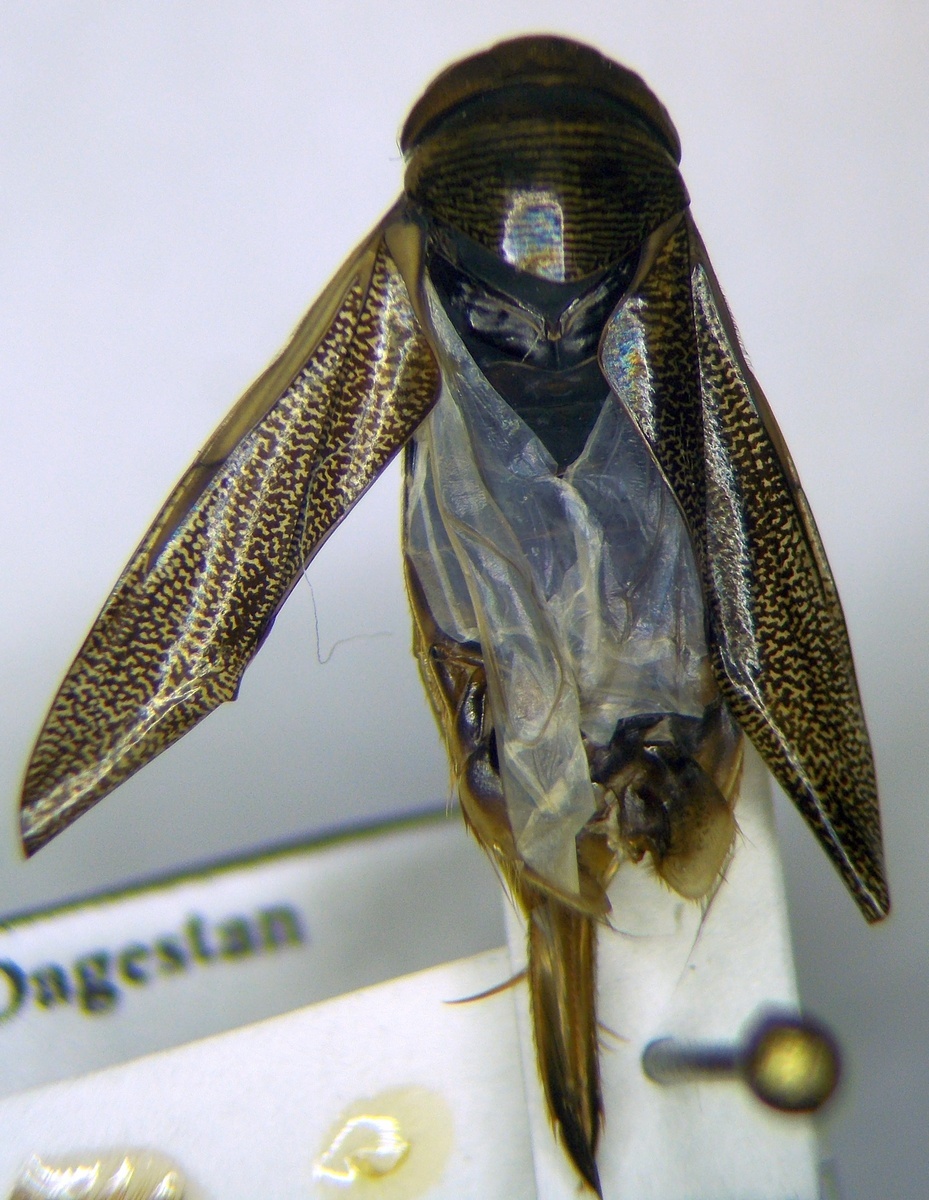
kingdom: Animalia
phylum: Arthropoda
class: Insecta
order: Hemiptera
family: Corixidae
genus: Corixa
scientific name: Corixa punctata
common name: Punctate corixa
